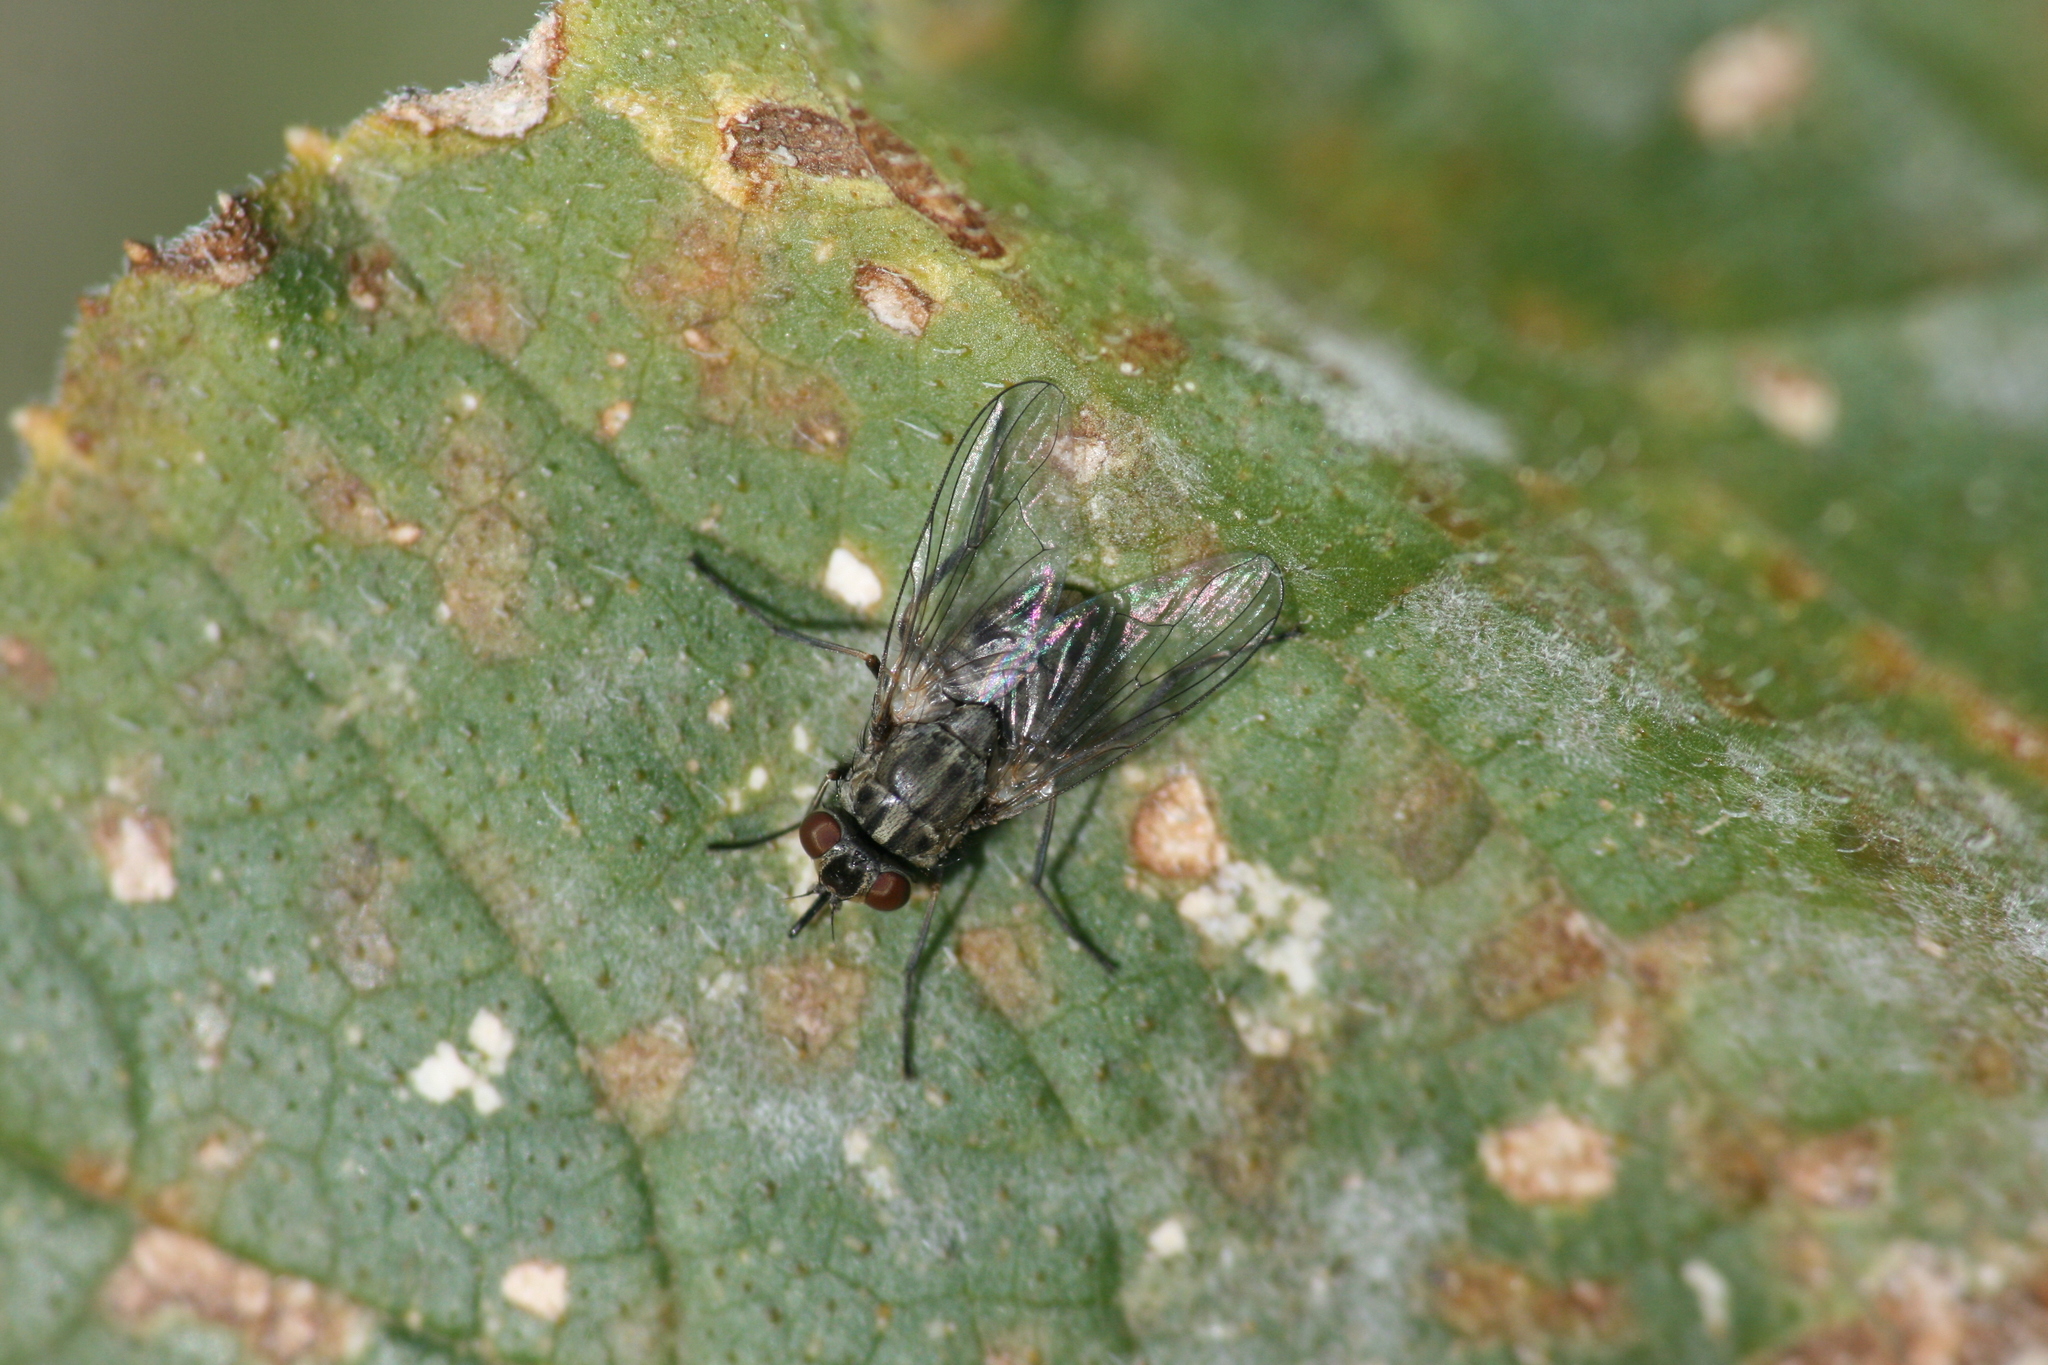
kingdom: Animalia
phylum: Arthropoda
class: Insecta
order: Diptera
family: Muscidae
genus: Stomoxys
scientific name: Stomoxys calcitrans
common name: Stable fly
